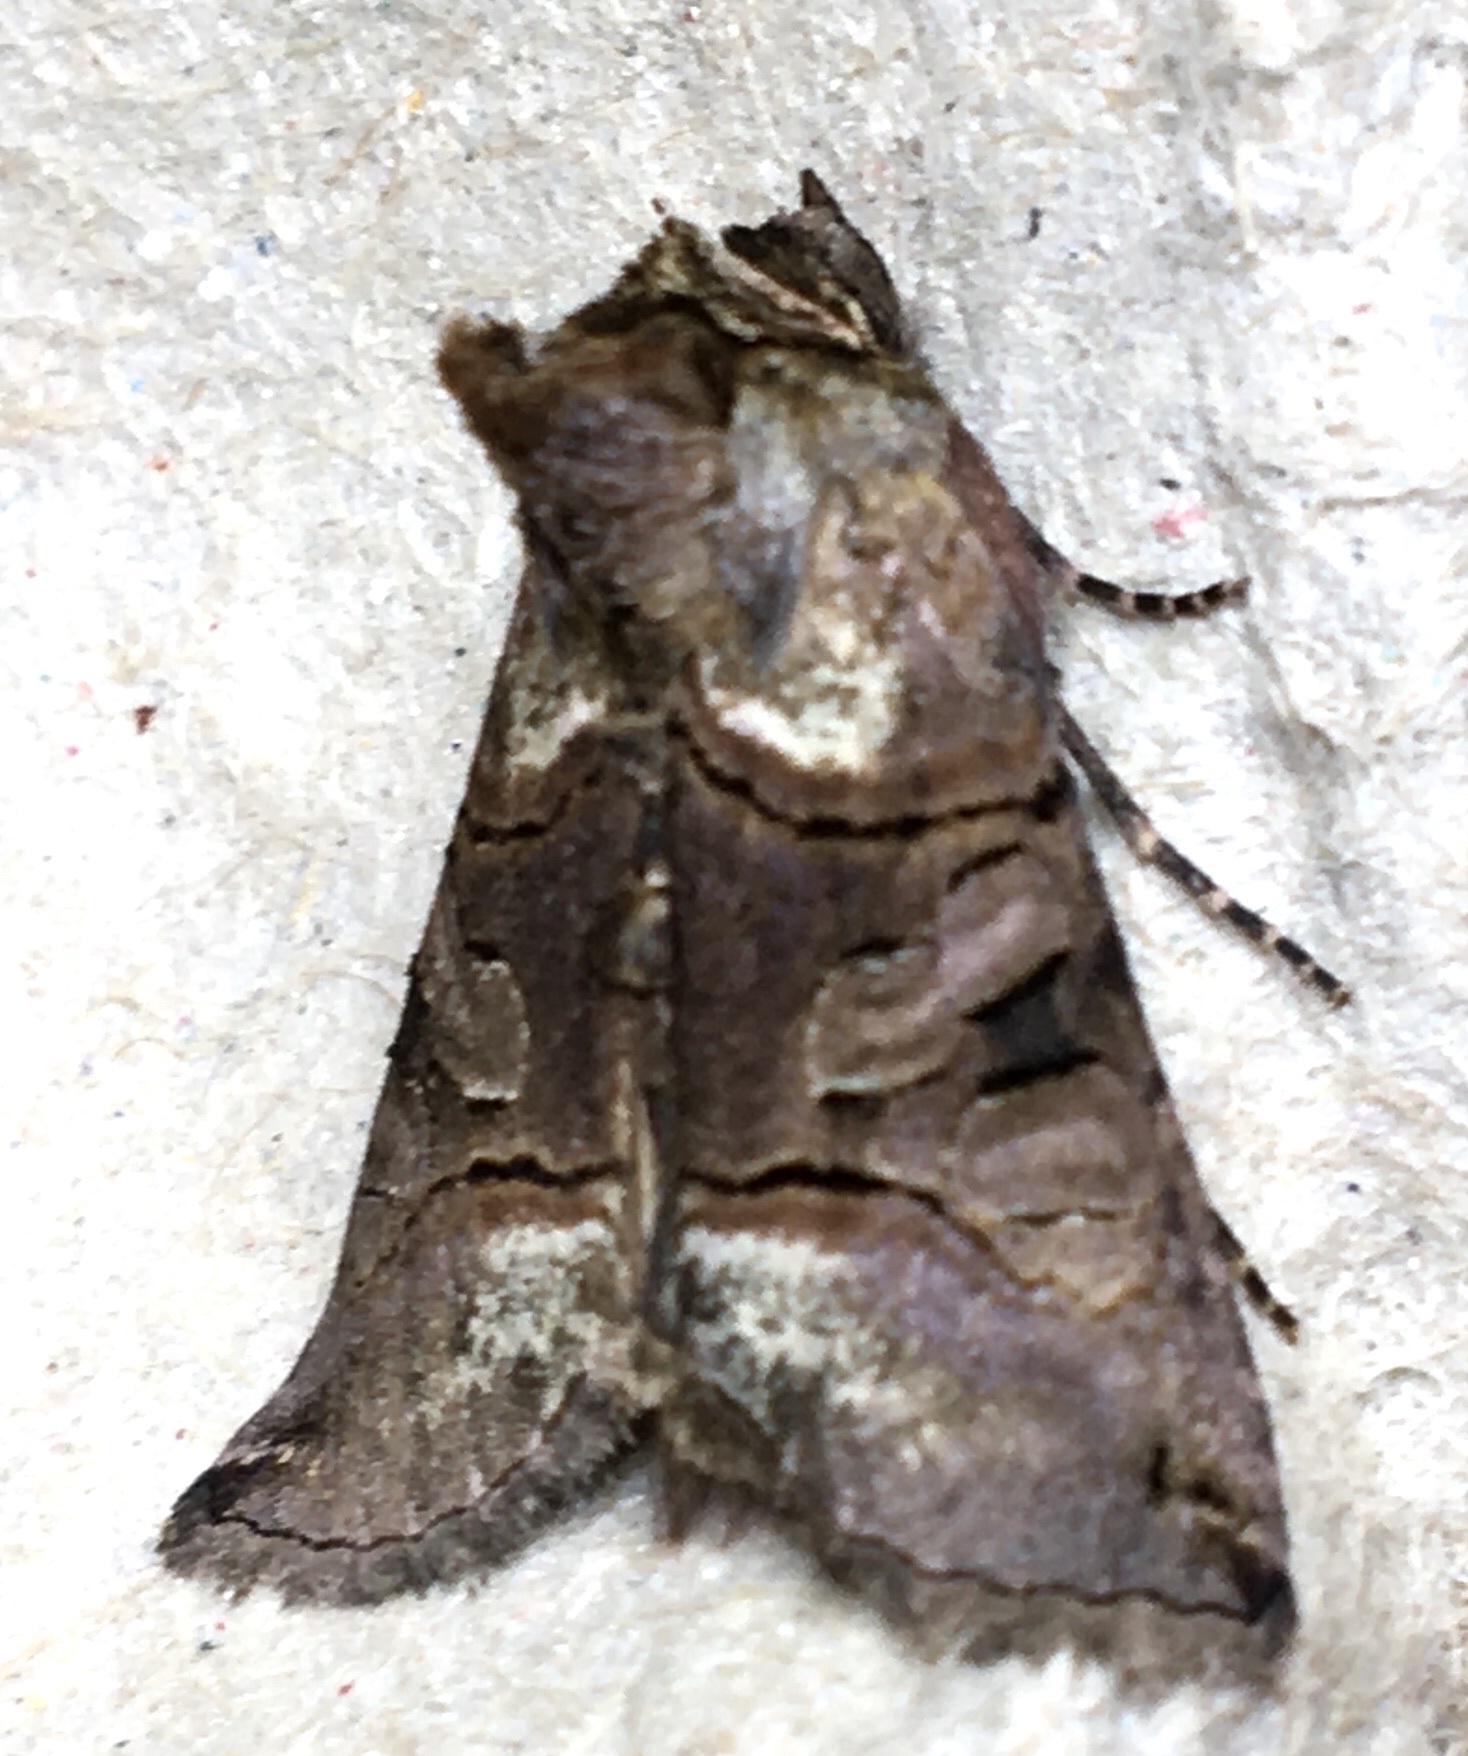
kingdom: Animalia
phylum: Arthropoda
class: Insecta
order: Lepidoptera
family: Noctuidae
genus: Abrostola
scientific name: Abrostola tripartita
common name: Spectacle
